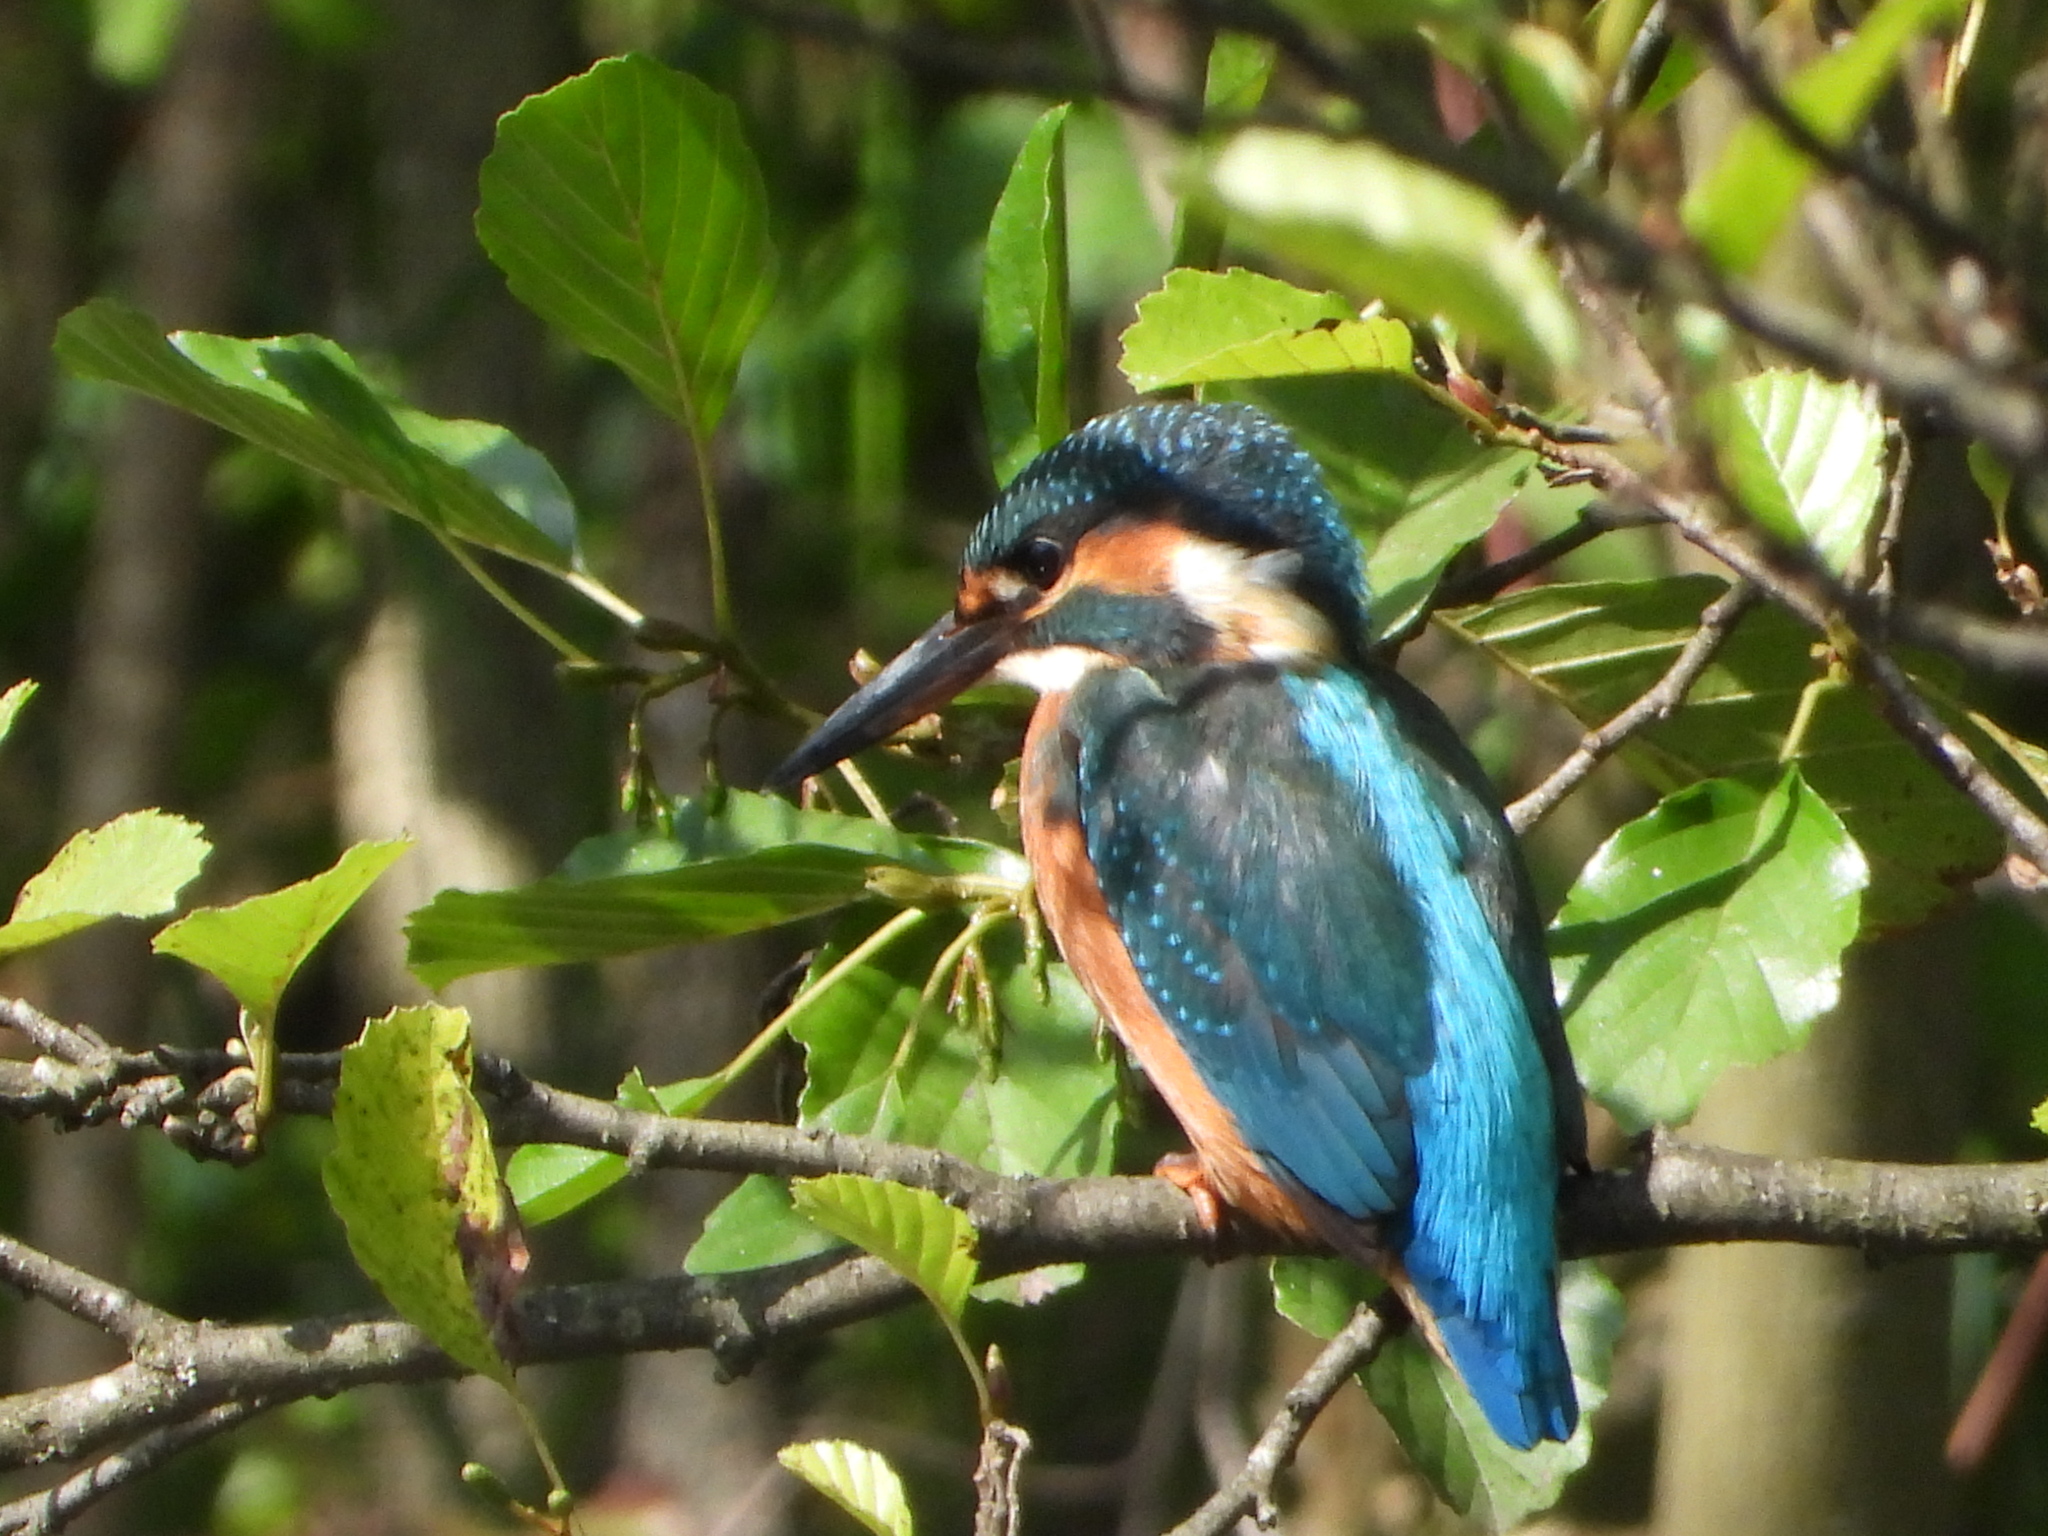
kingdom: Animalia
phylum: Chordata
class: Aves
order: Coraciiformes
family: Alcedinidae
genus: Alcedo
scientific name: Alcedo atthis
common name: Common kingfisher
